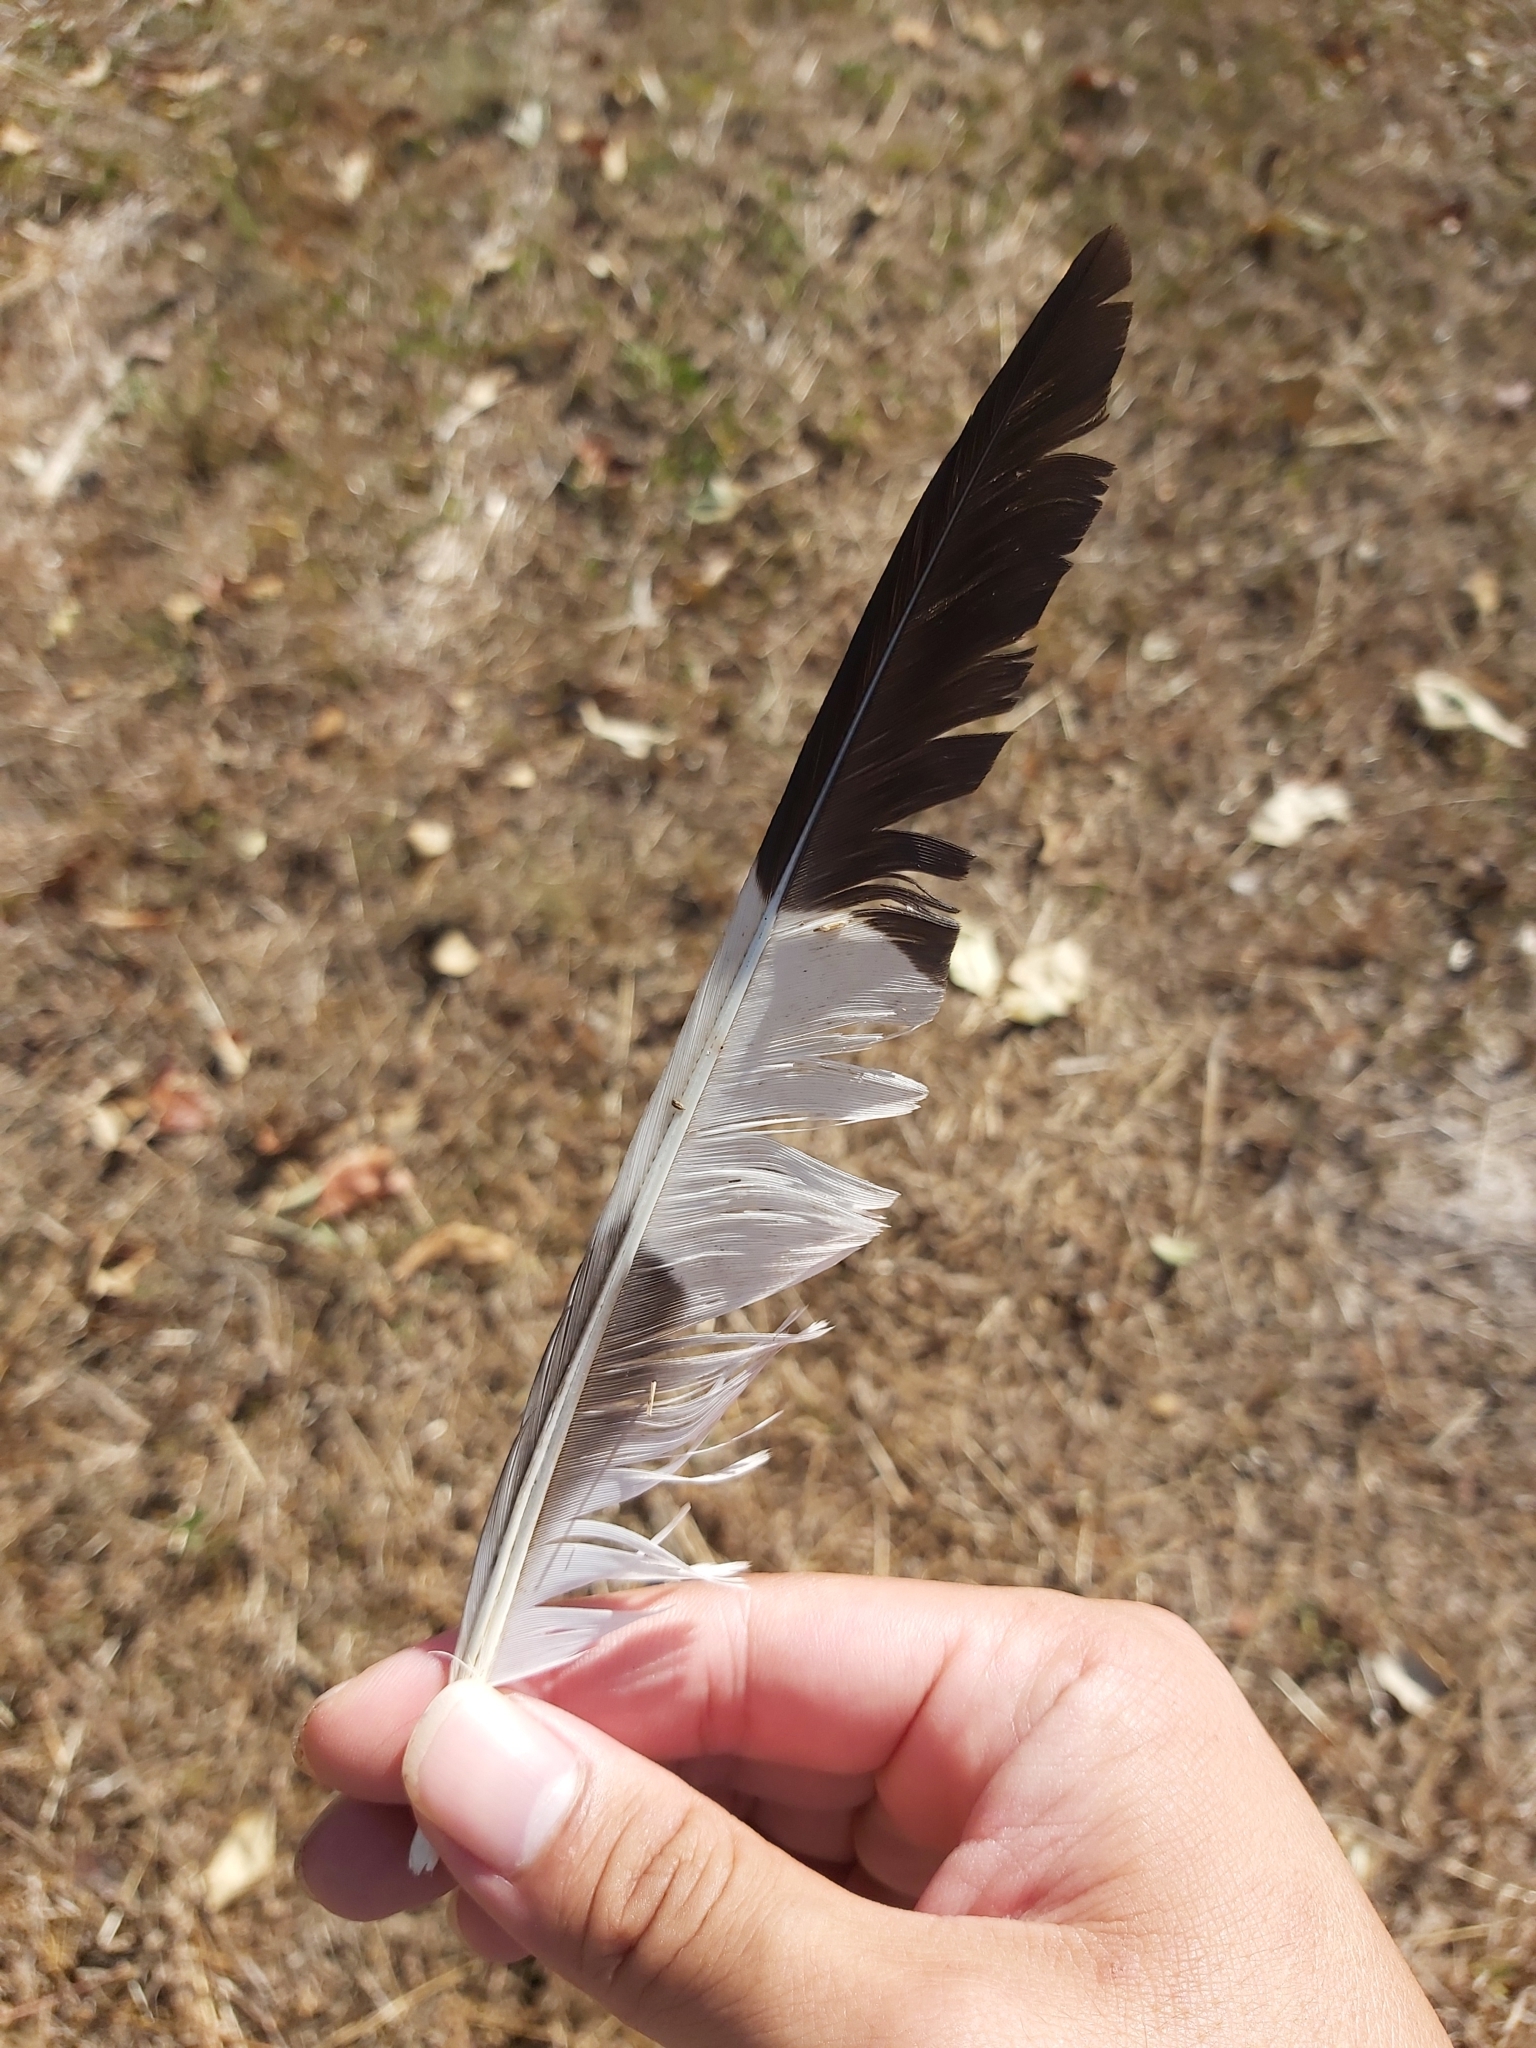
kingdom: Animalia
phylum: Chordata
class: Aves
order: Charadriiformes
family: Burhinidae
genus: Burhinus
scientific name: Burhinus grallarius
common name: Bush stone-curlew
